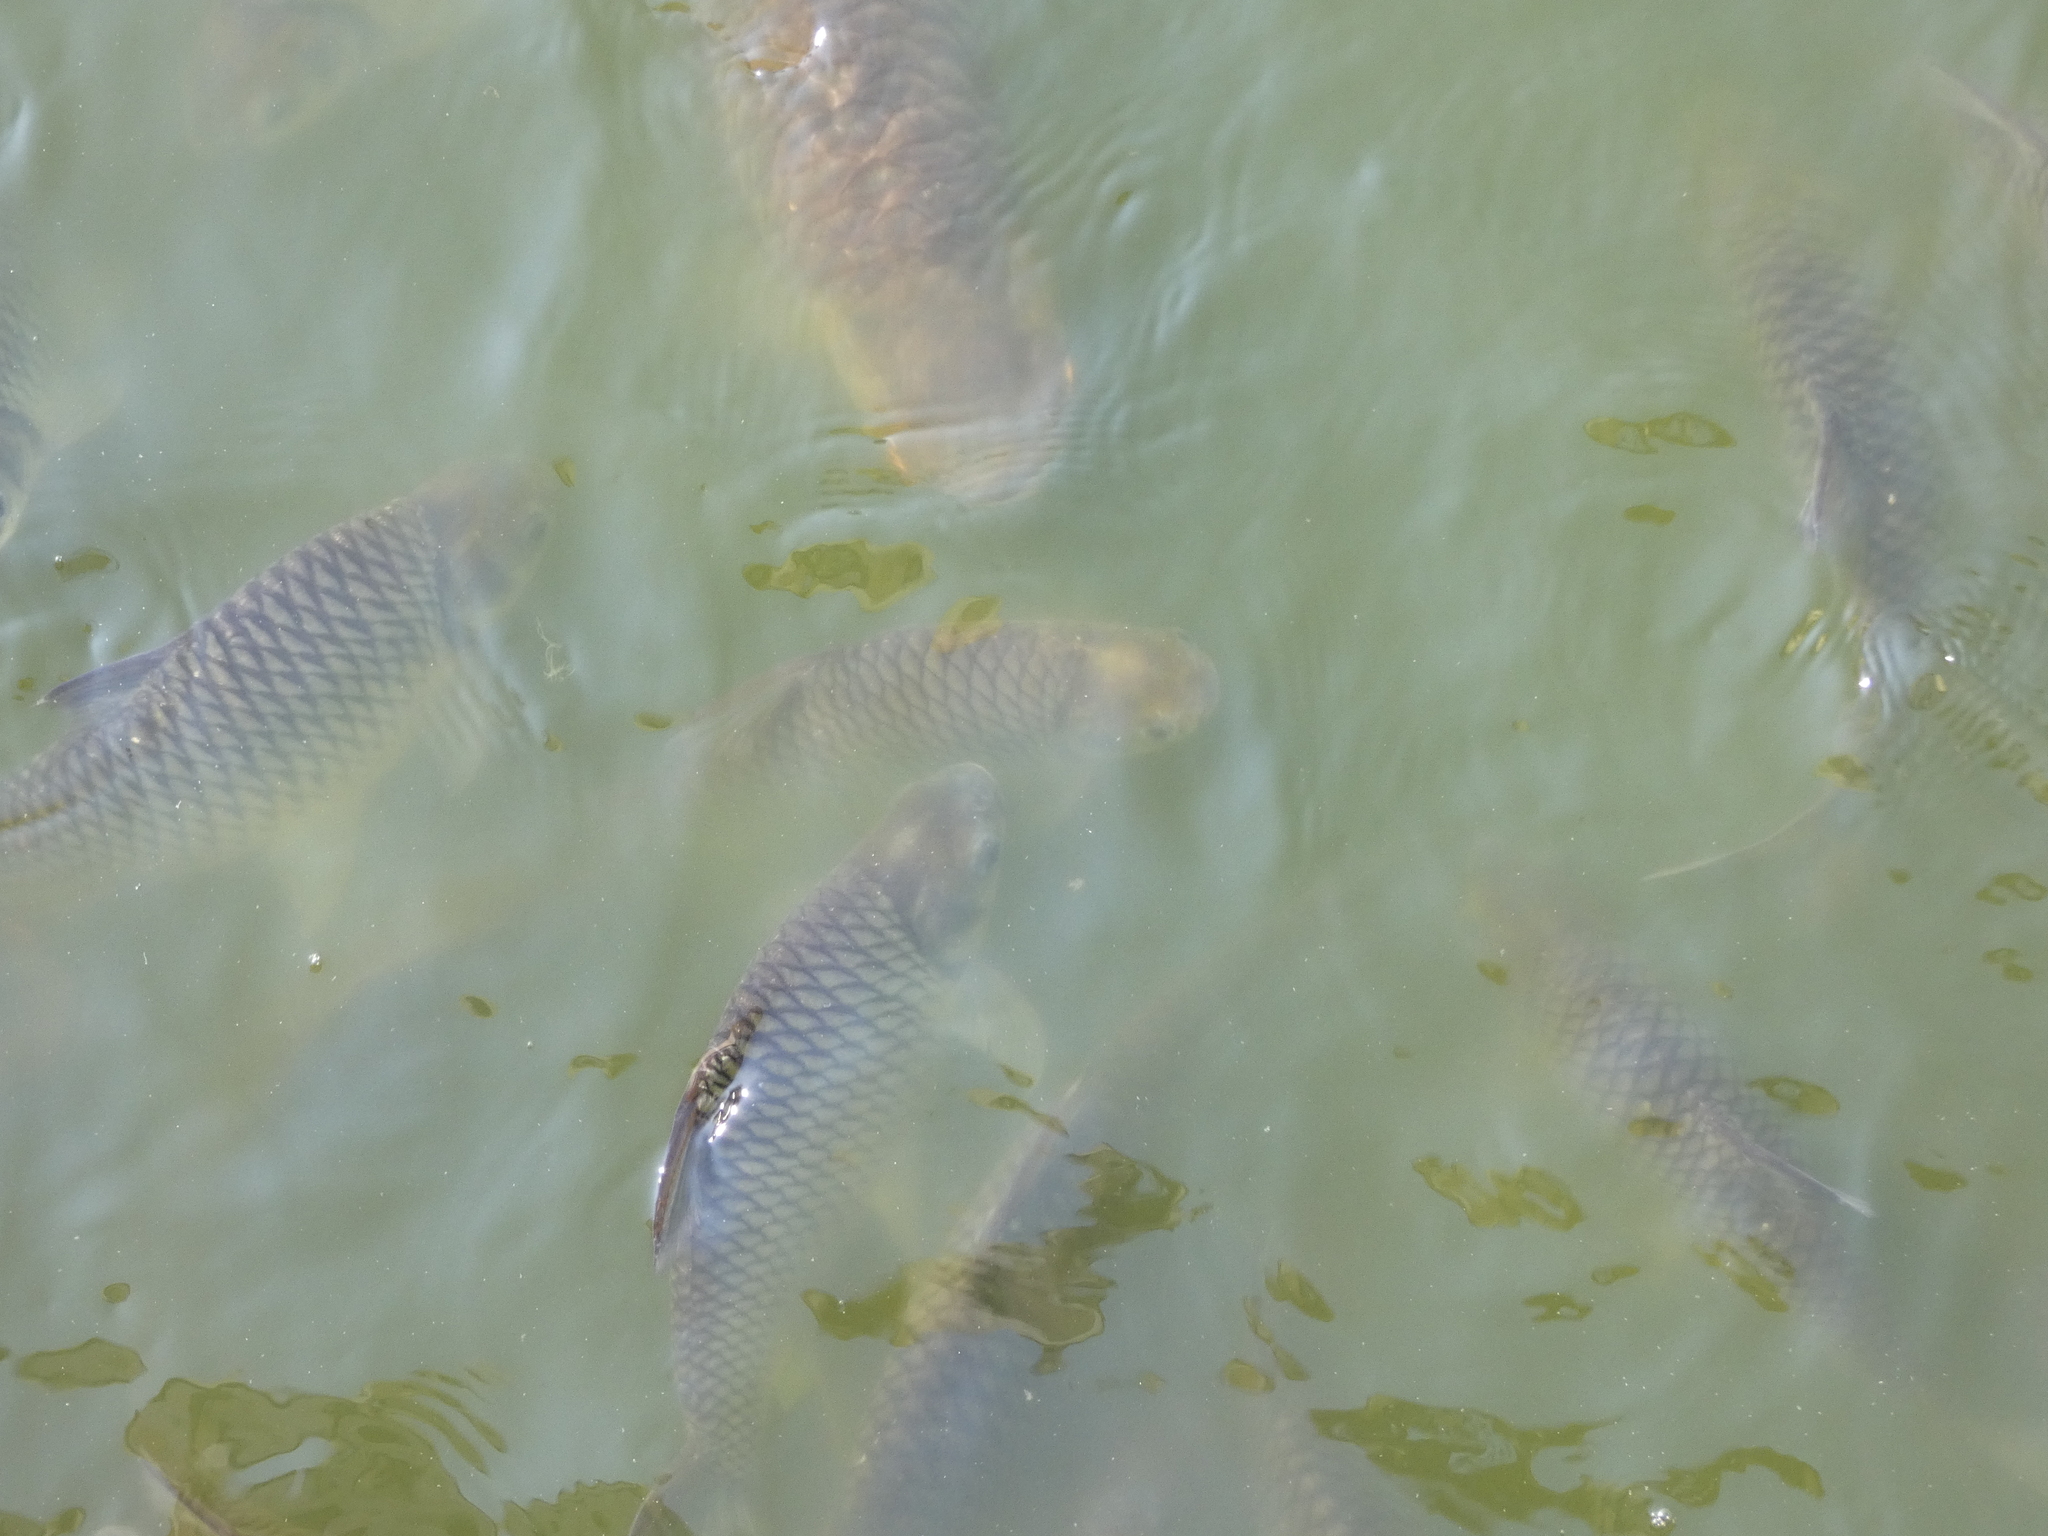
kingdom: Animalia
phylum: Chordata
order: Cypriniformes
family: Cyprinidae
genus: Barbonymus
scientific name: Barbonymus gonionotus
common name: Silver barb
